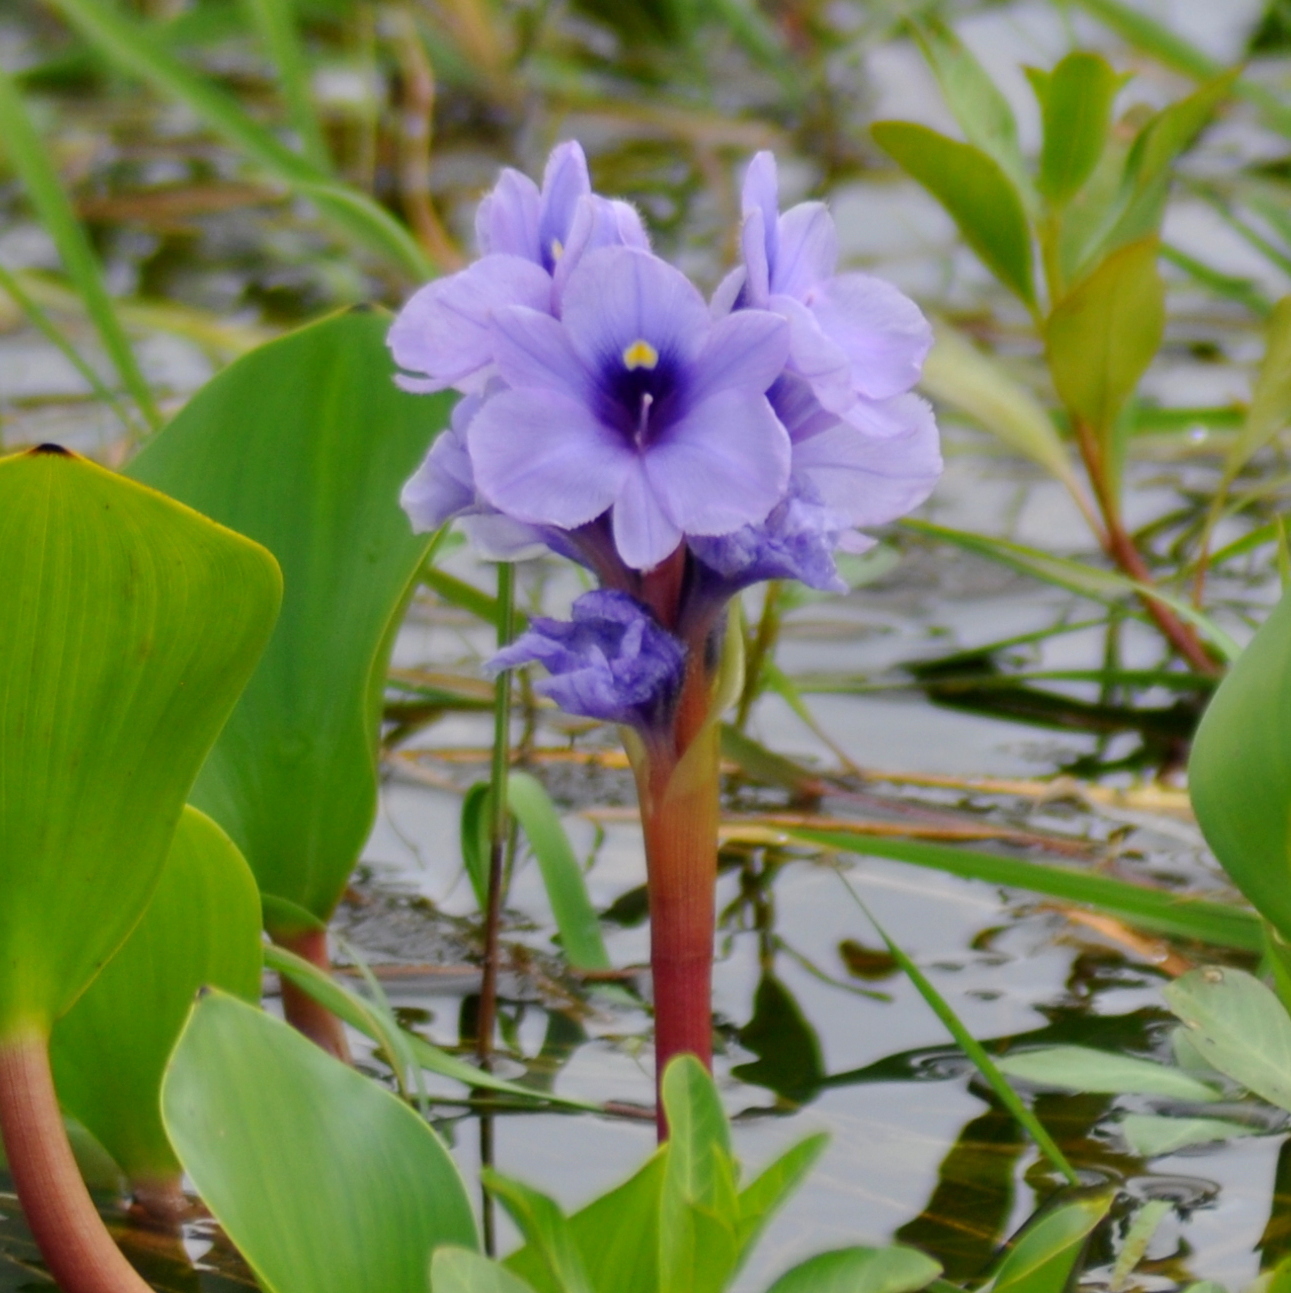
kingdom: Plantae
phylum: Tracheophyta
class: Liliopsida
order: Commelinales
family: Pontederiaceae
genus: Pontederia
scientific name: Pontederia azurea
